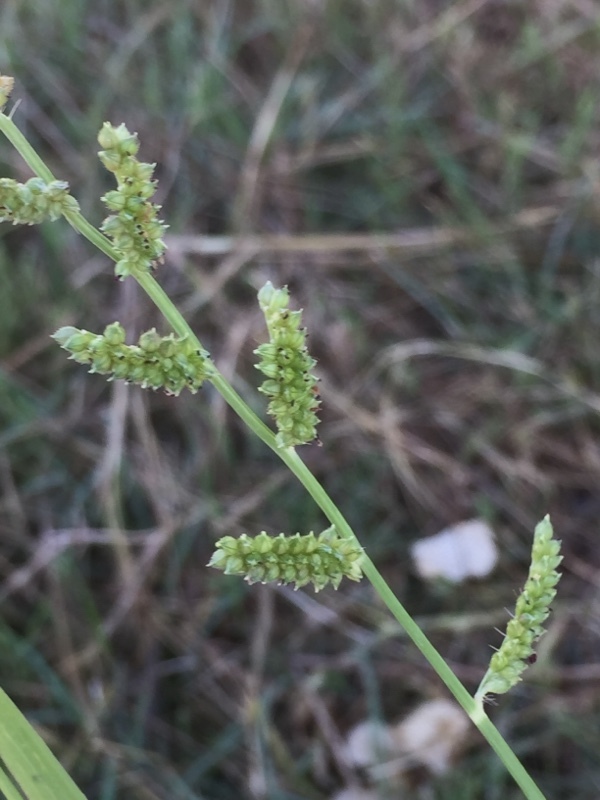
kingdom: Plantae
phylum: Tracheophyta
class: Liliopsida
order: Poales
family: Poaceae
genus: Echinochloa
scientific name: Echinochloa colonum
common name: Jungle rice
